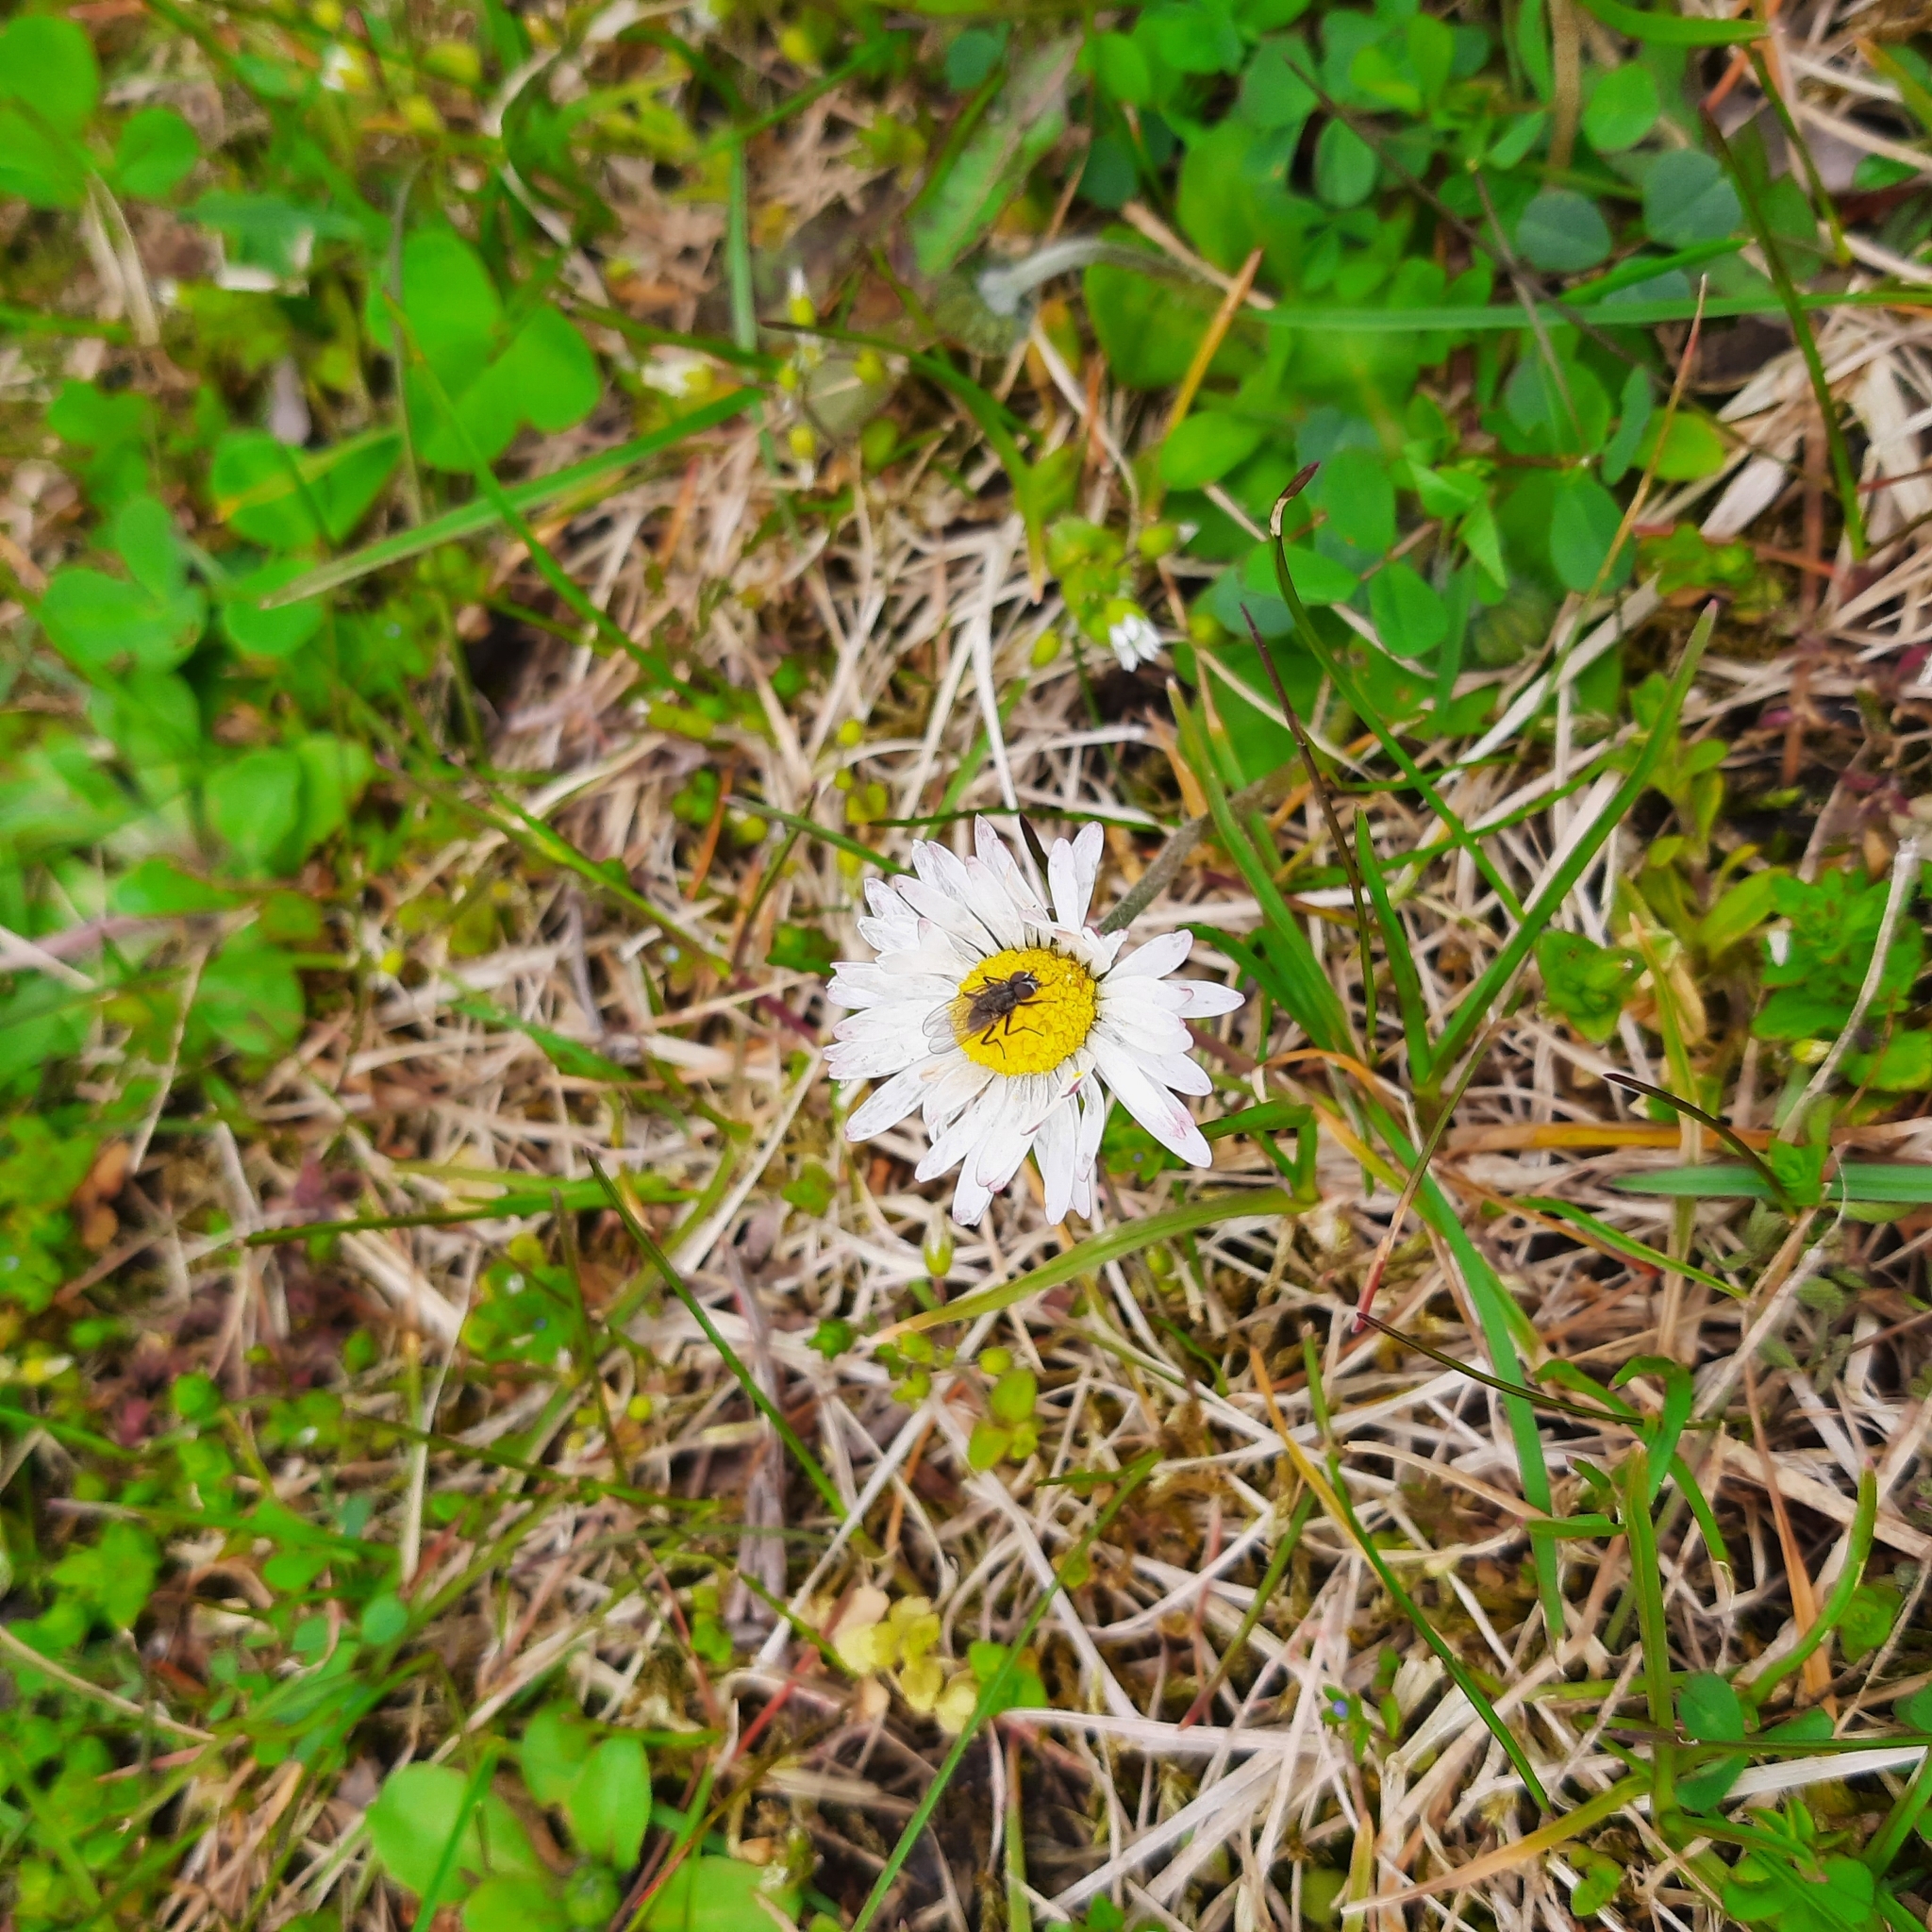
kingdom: Plantae
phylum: Tracheophyta
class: Magnoliopsida
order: Asterales
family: Asteraceae
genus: Bellis
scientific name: Bellis perennis
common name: Lawndaisy
